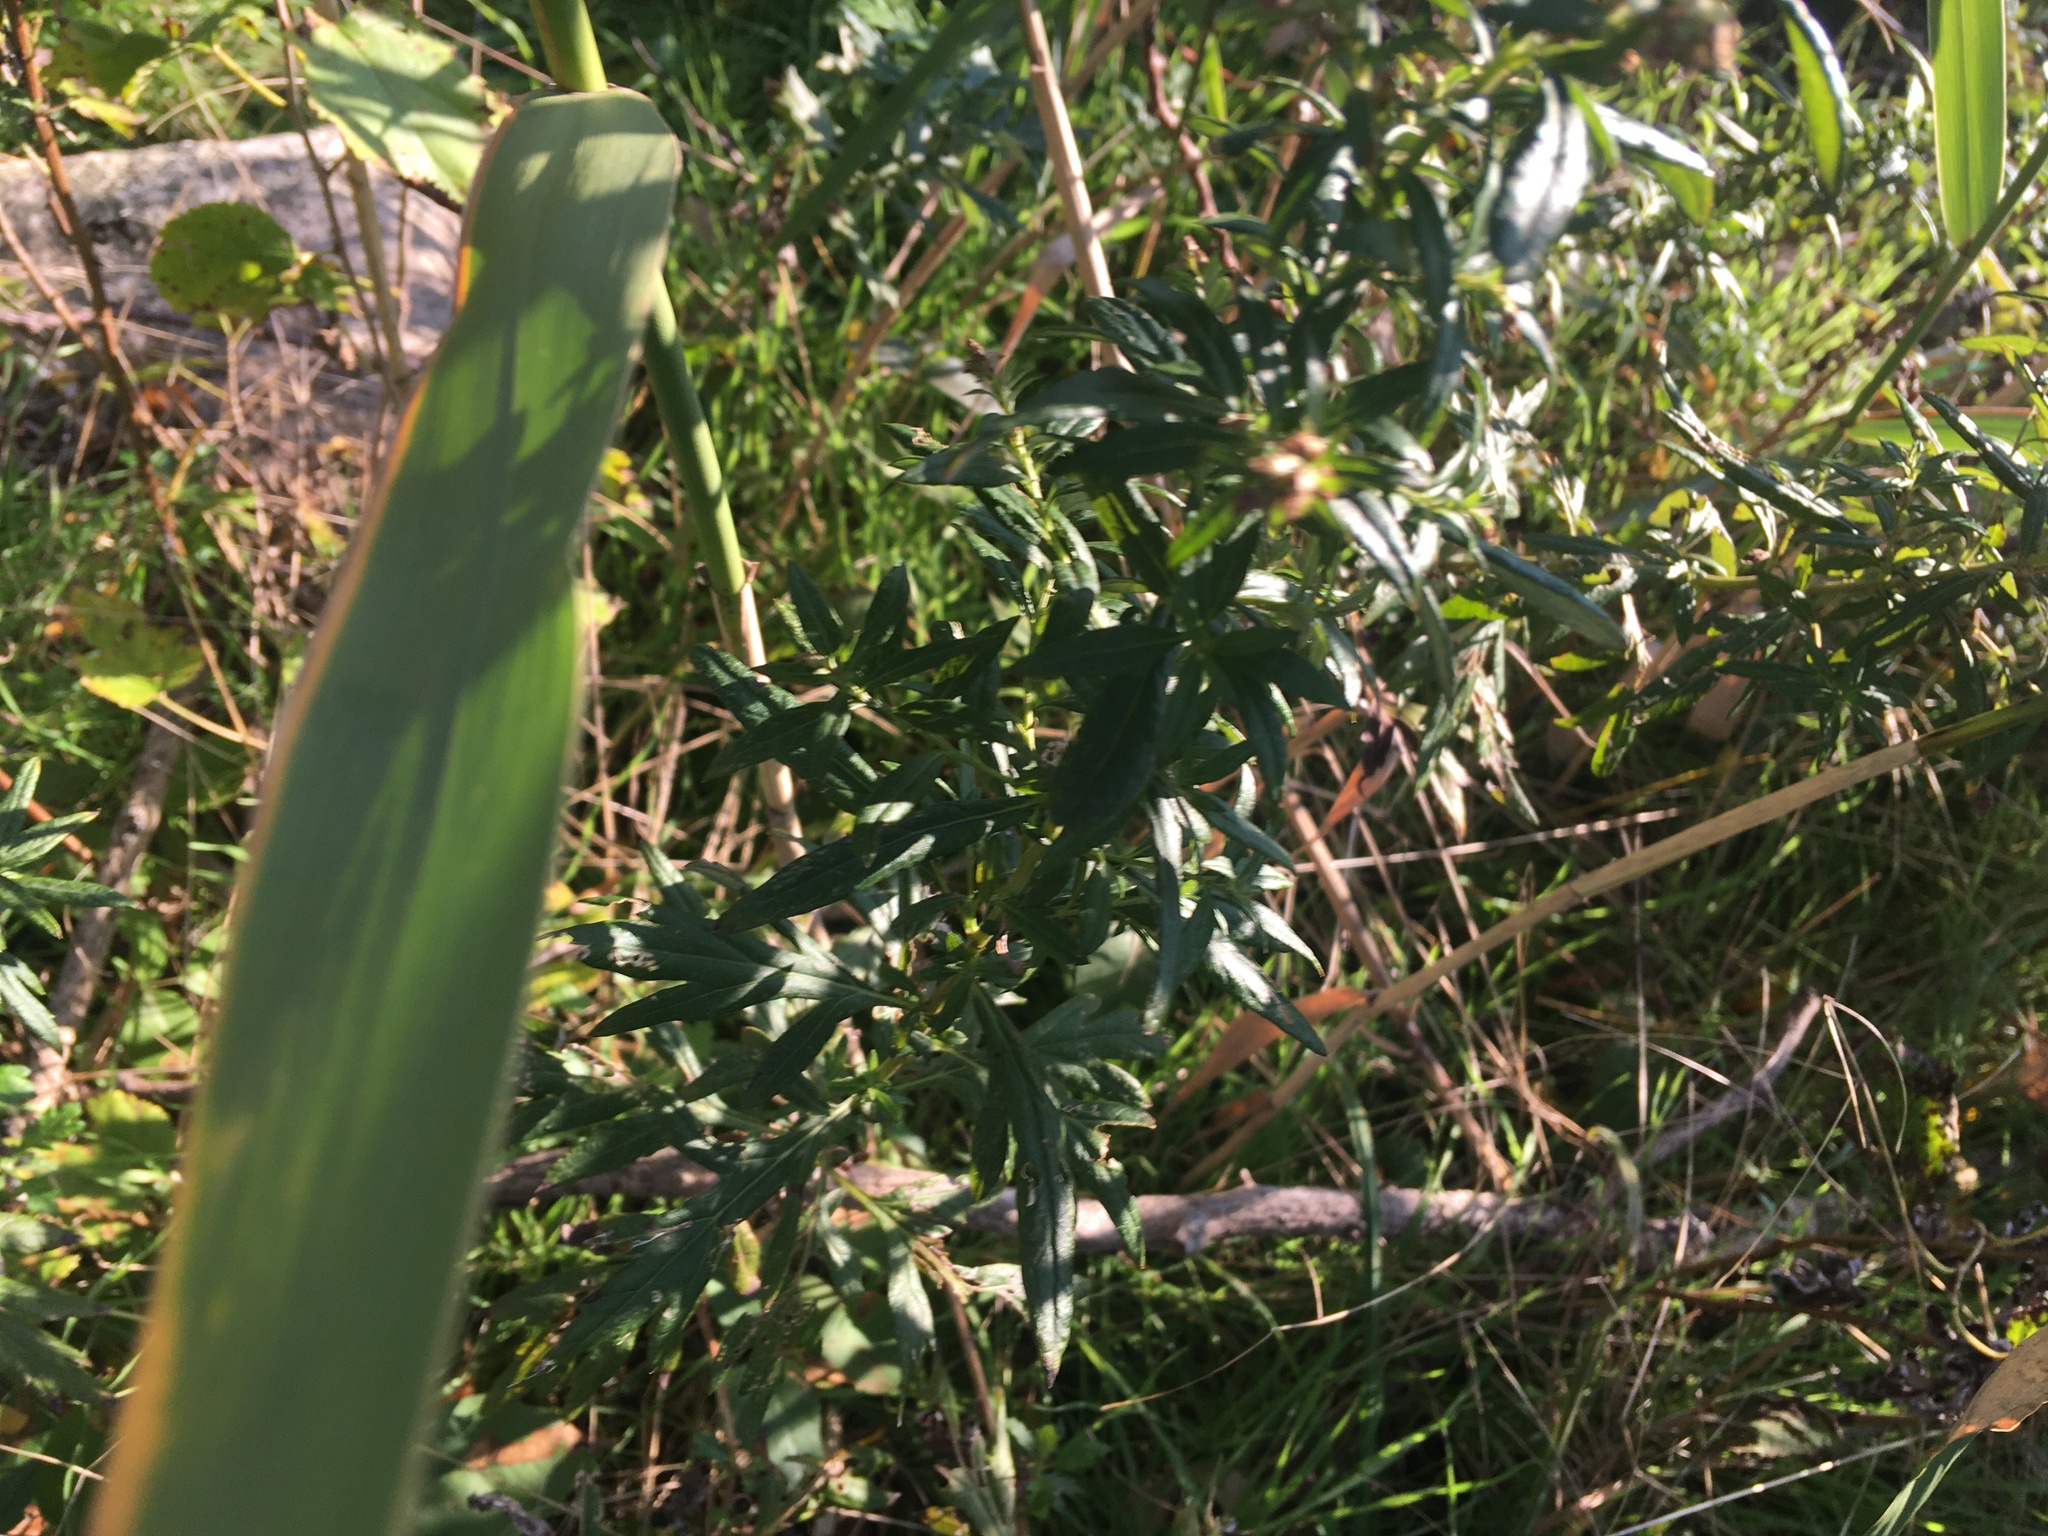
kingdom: Plantae
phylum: Tracheophyta
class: Magnoliopsida
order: Asterales
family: Asteraceae
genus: Artemisia
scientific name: Artemisia vulgaris
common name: Mugwort
